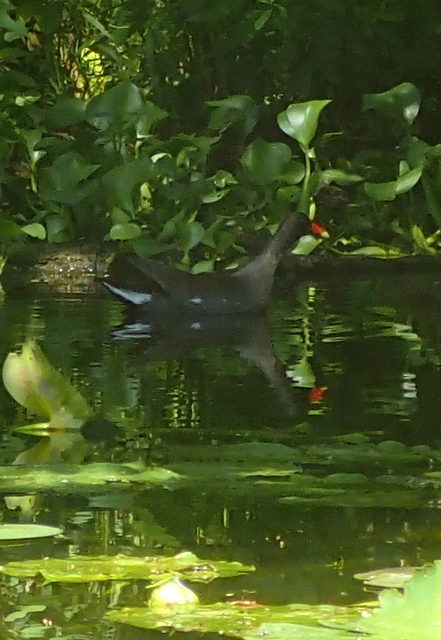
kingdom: Animalia
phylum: Chordata
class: Aves
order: Gruiformes
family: Rallidae
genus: Gallinula
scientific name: Gallinula chloropus
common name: Common moorhen
